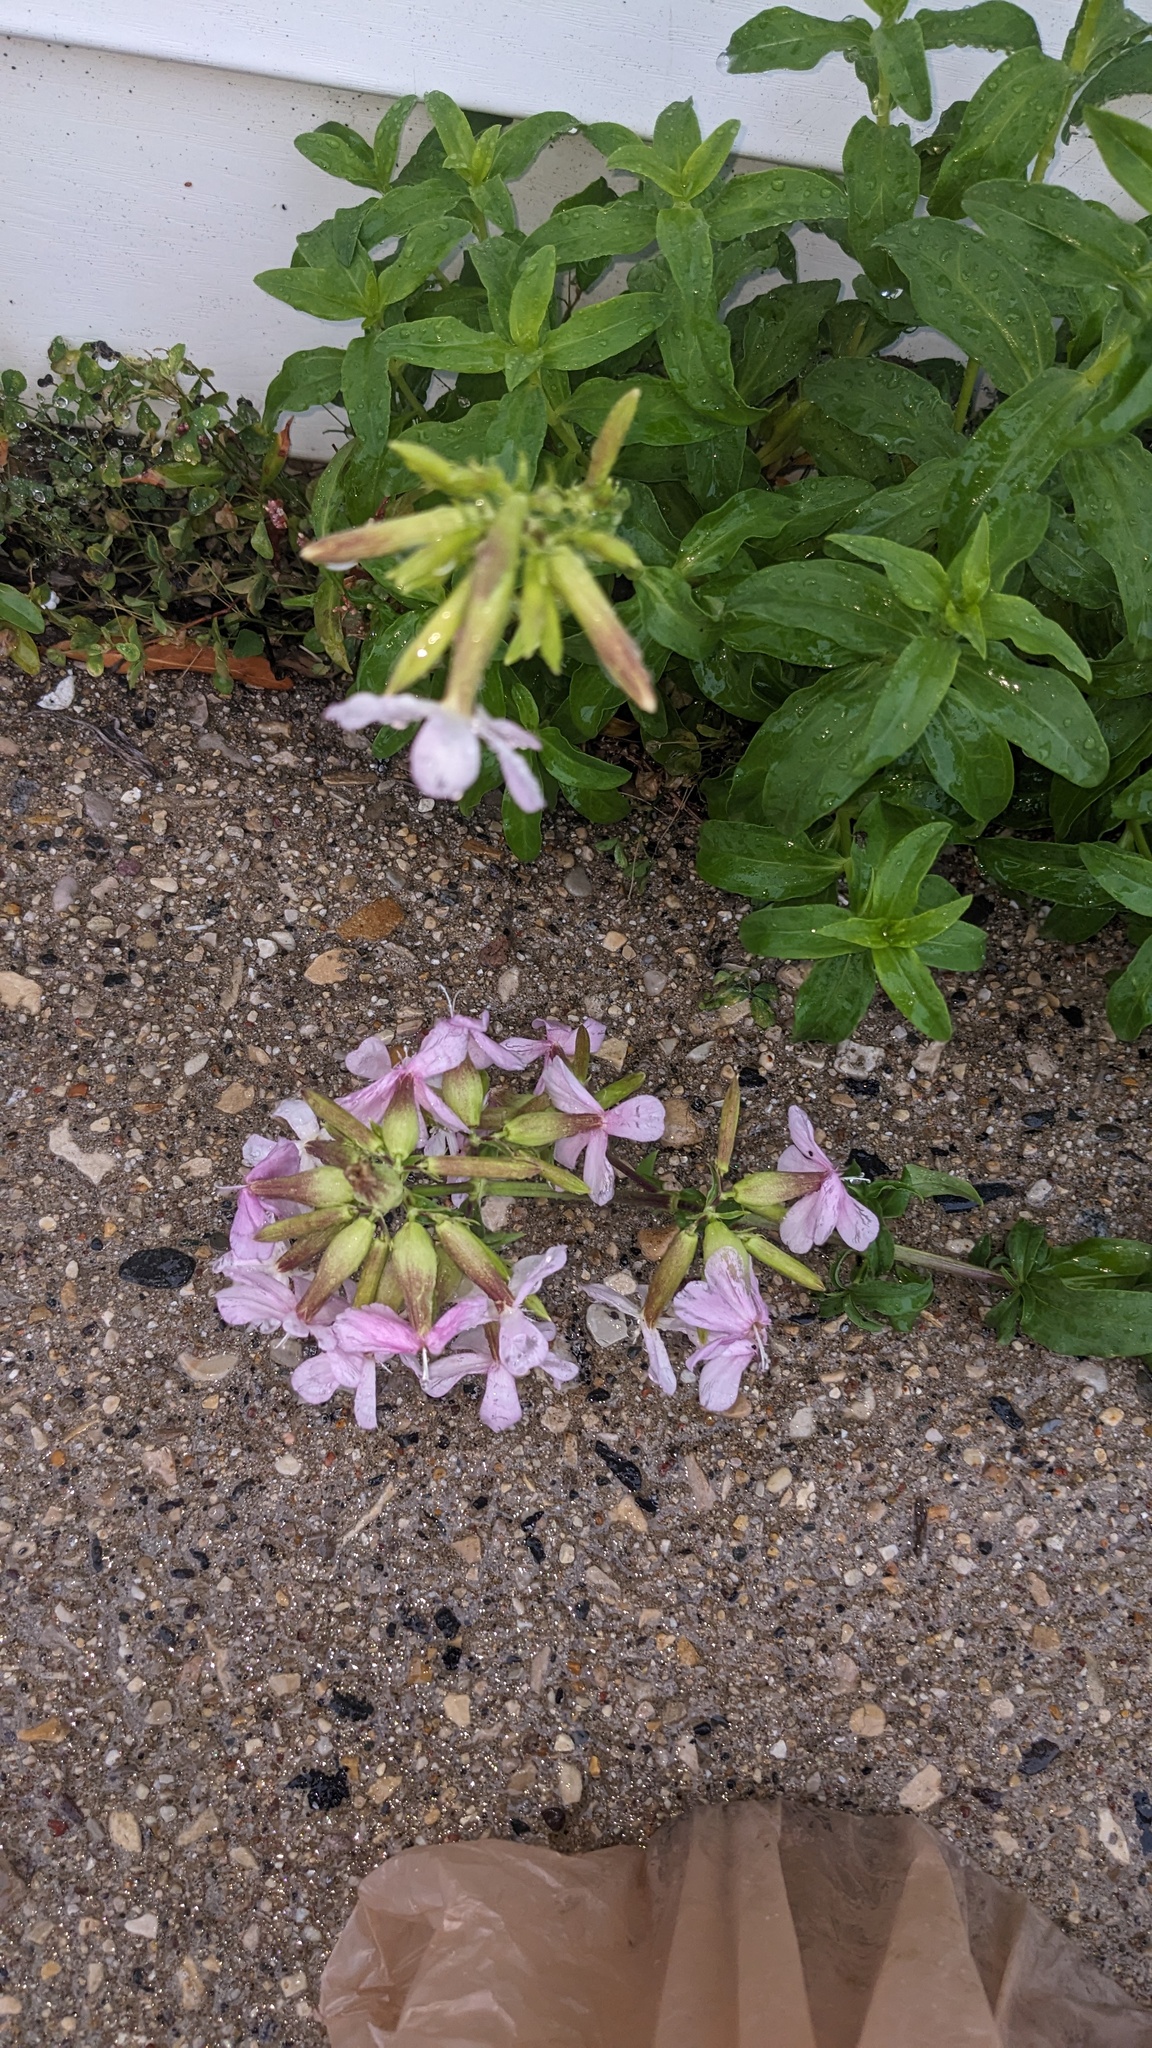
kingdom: Plantae
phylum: Tracheophyta
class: Magnoliopsida
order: Caryophyllales
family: Caryophyllaceae
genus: Saponaria
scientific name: Saponaria officinalis
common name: Soapwort
